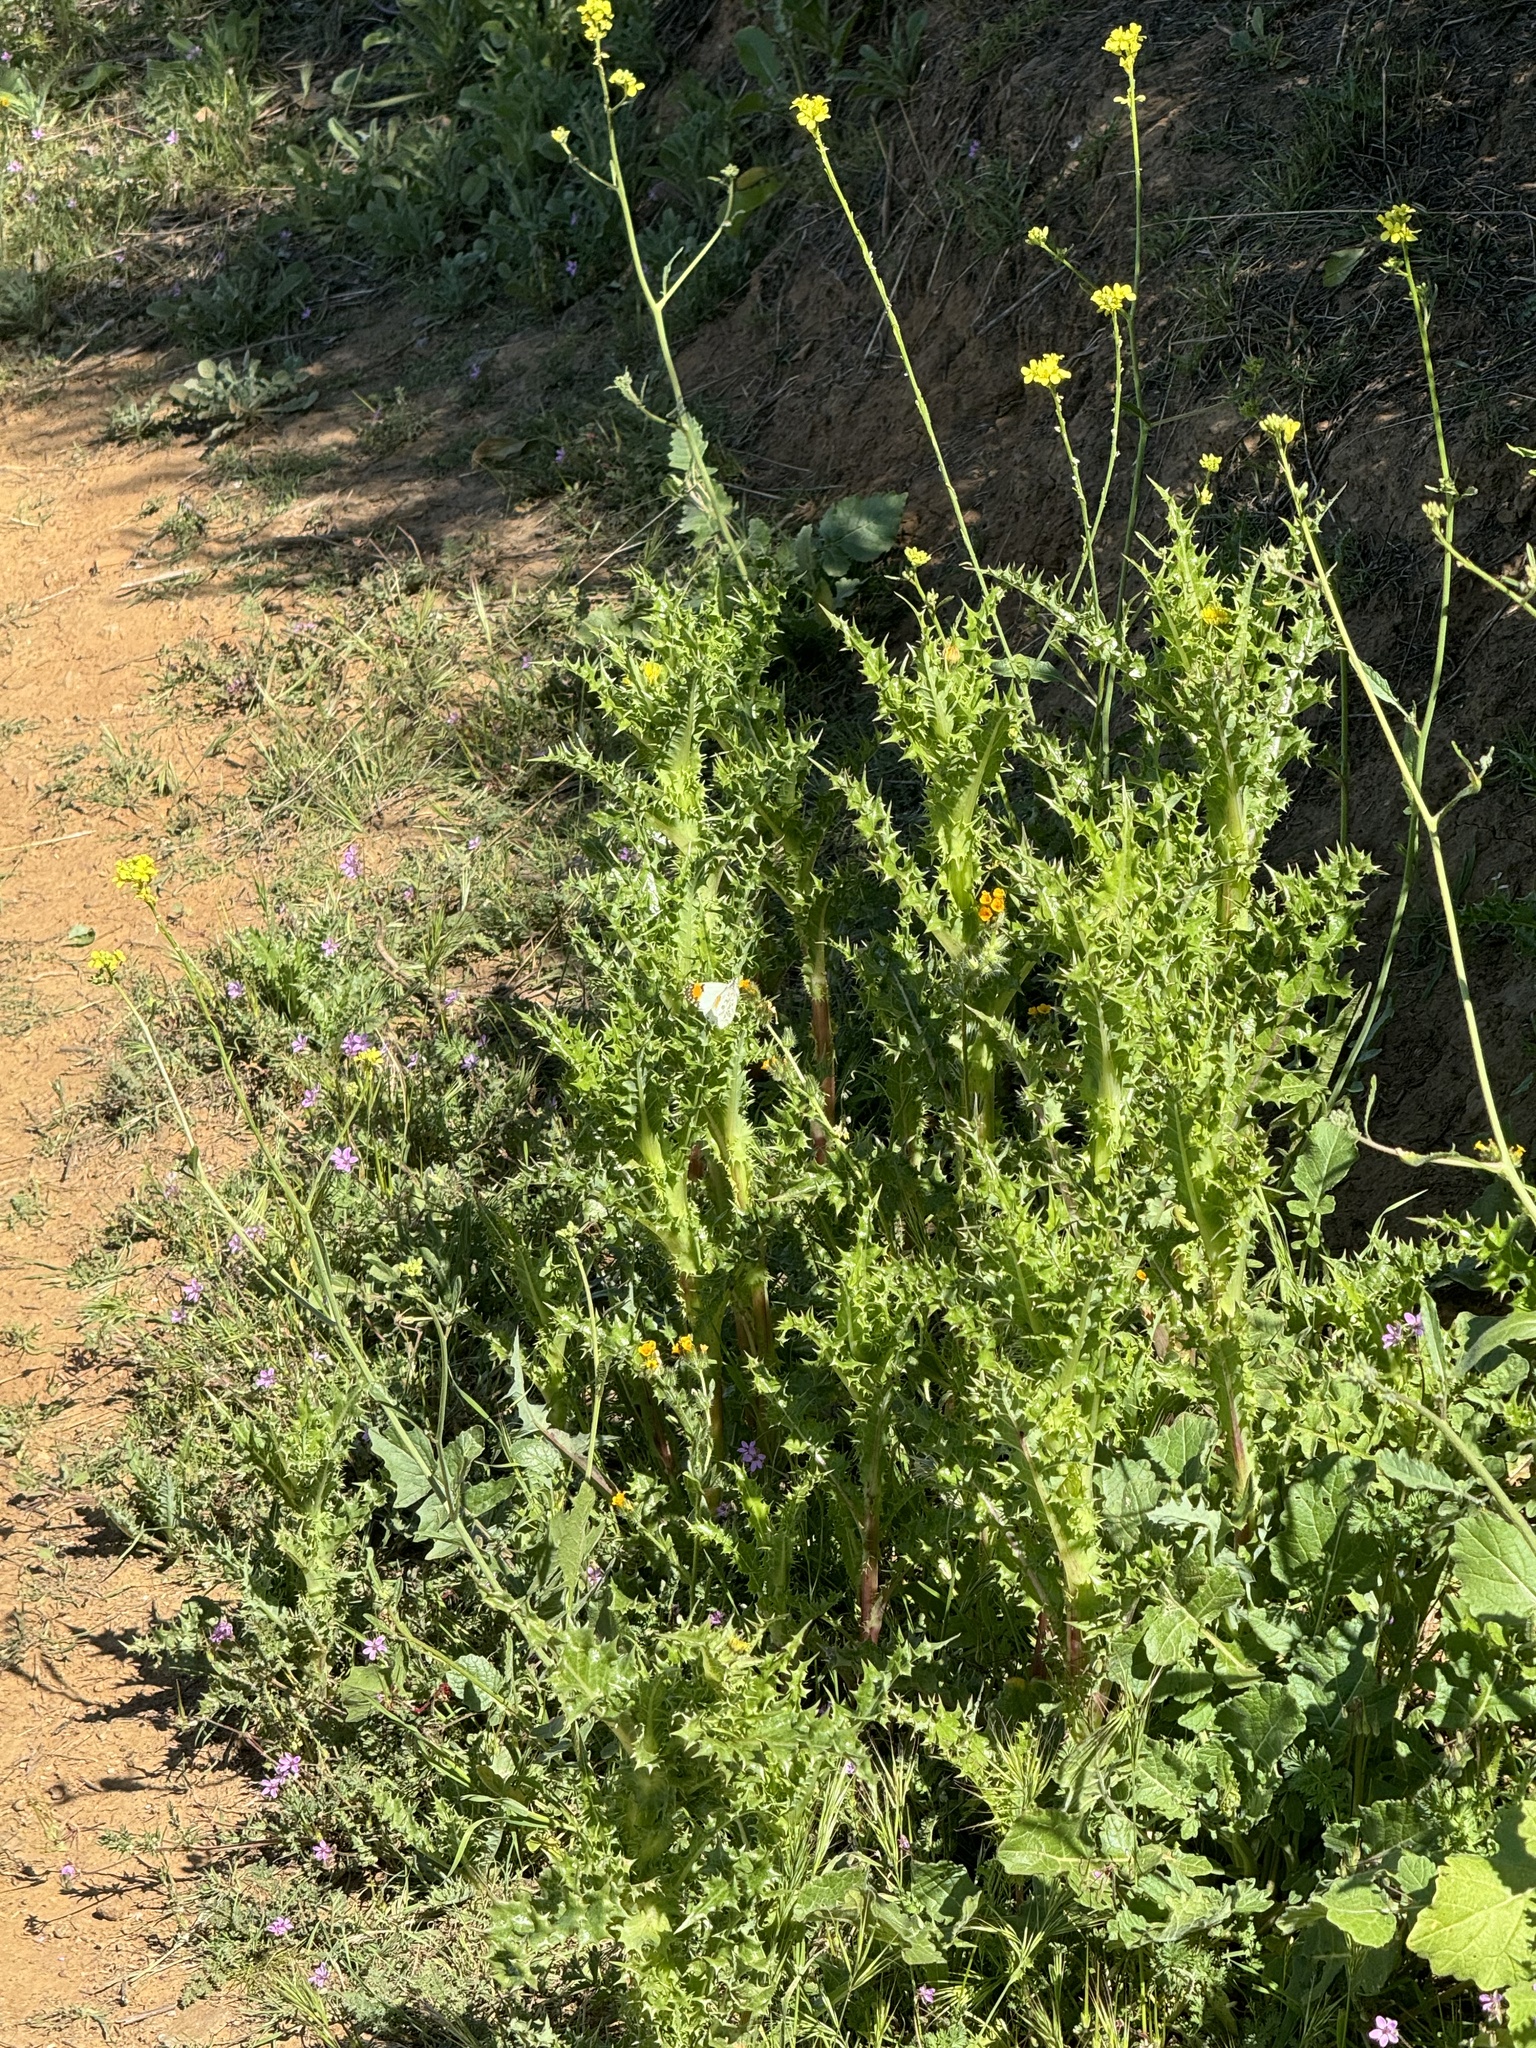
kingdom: Animalia
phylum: Arthropoda
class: Insecta
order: Lepidoptera
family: Pieridae
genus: Anthocharis
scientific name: Anthocharis sara
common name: Sara's orangetip
